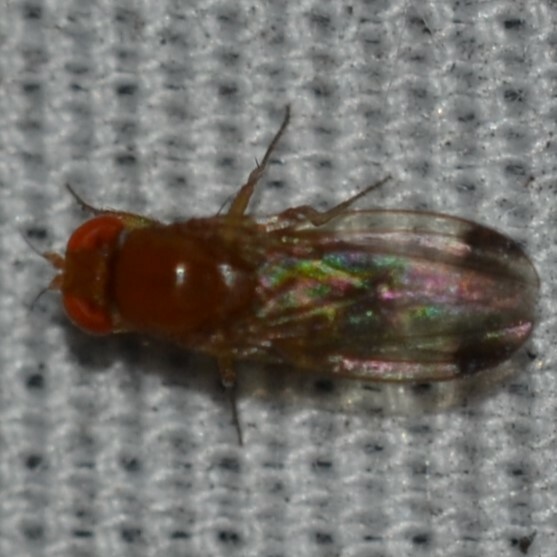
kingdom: Animalia
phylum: Arthropoda
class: Insecta
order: Diptera
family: Drosophilidae
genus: Drosophila
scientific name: Drosophila suzukii
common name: Spotted-wing drosophila
